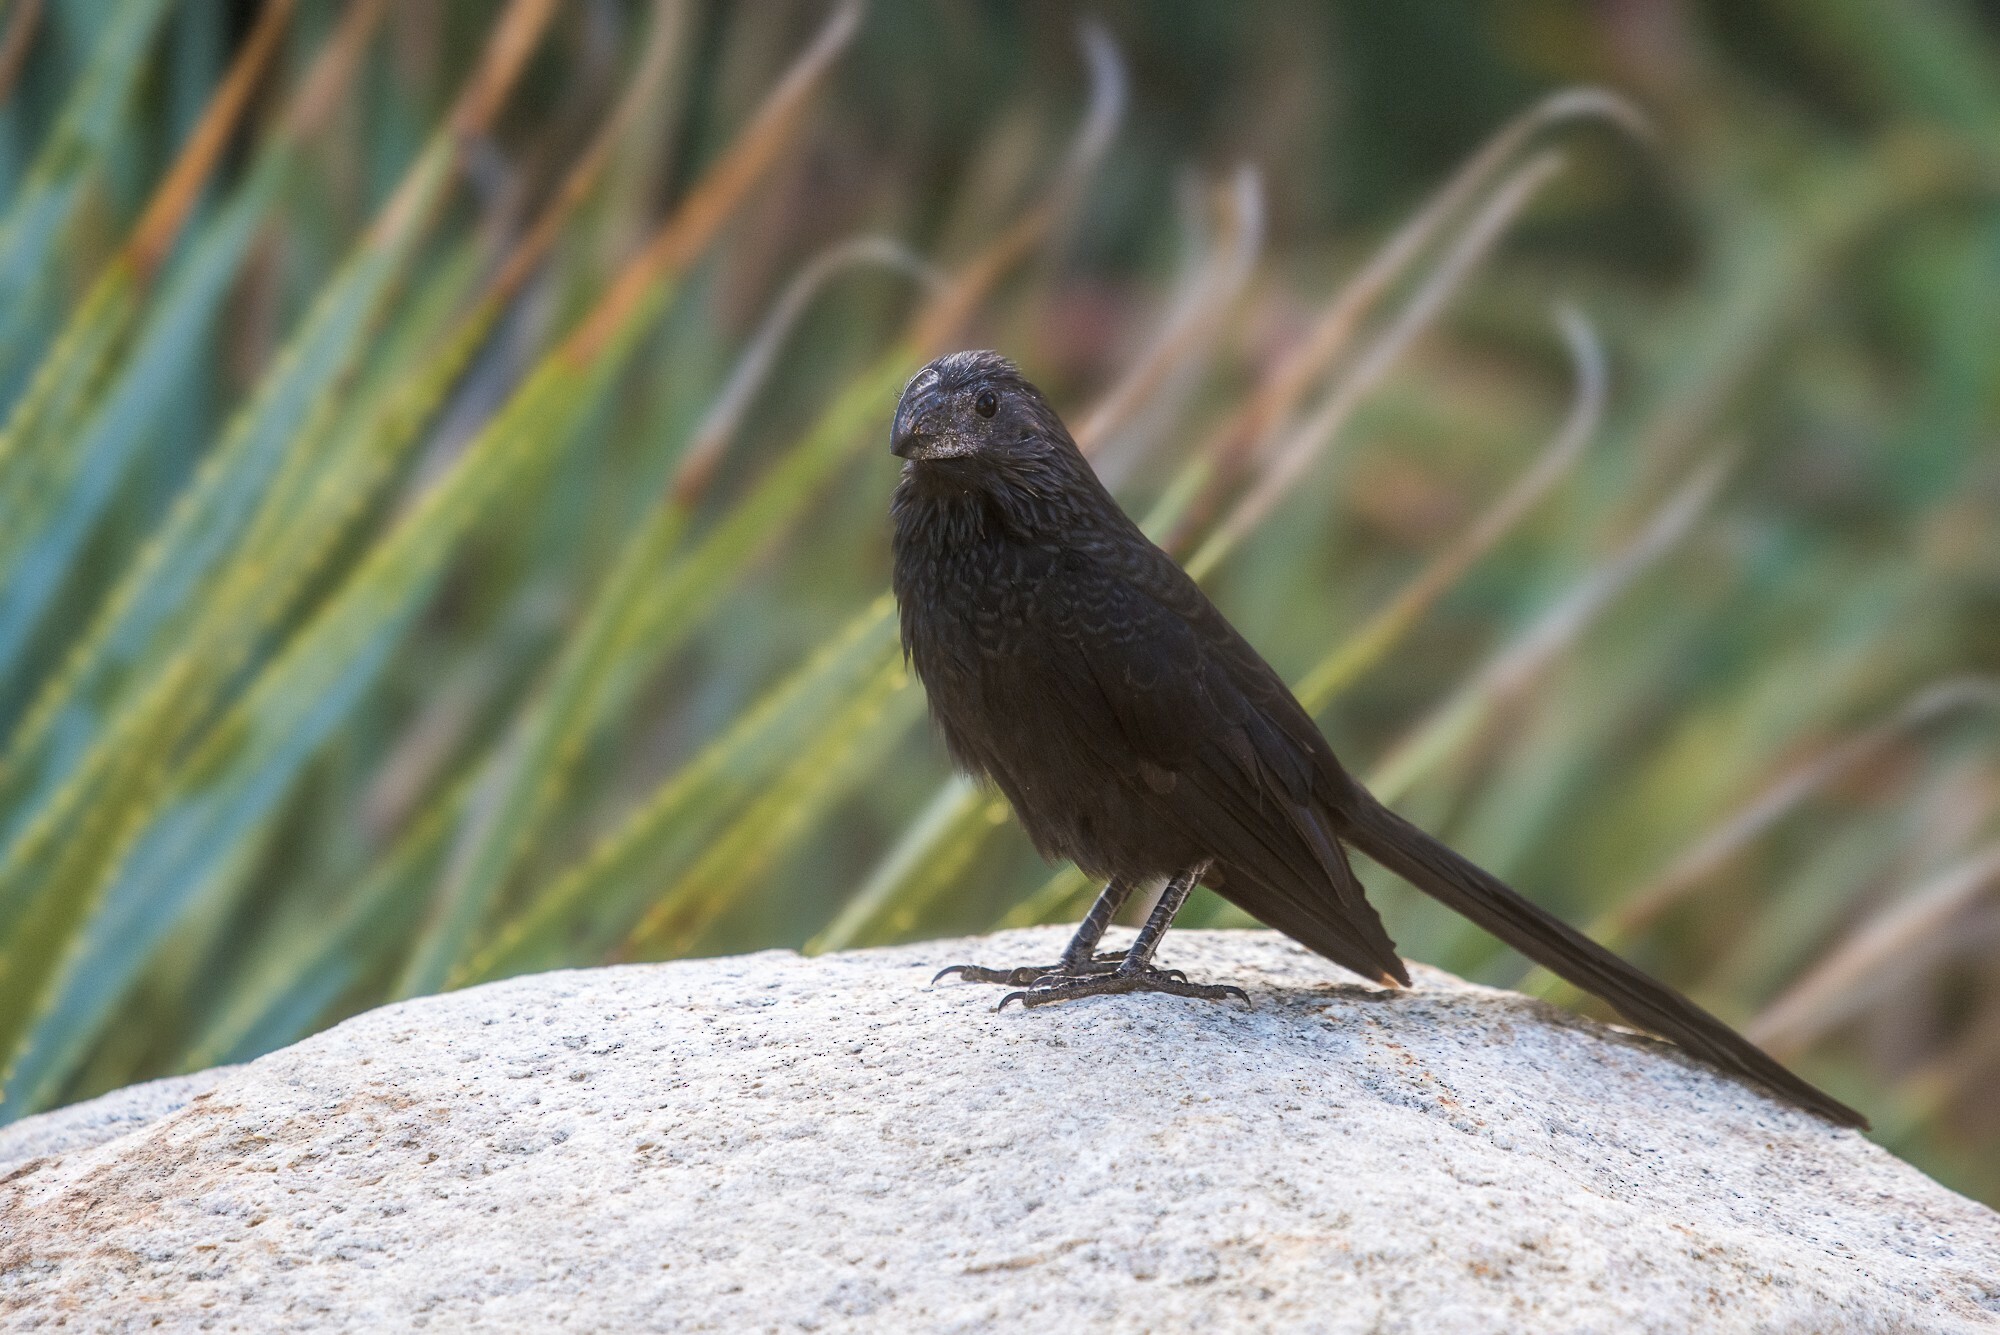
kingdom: Animalia
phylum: Chordata
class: Aves
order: Cuculiformes
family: Cuculidae
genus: Crotophaga
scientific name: Crotophaga sulcirostris
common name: Groove-billed ani
